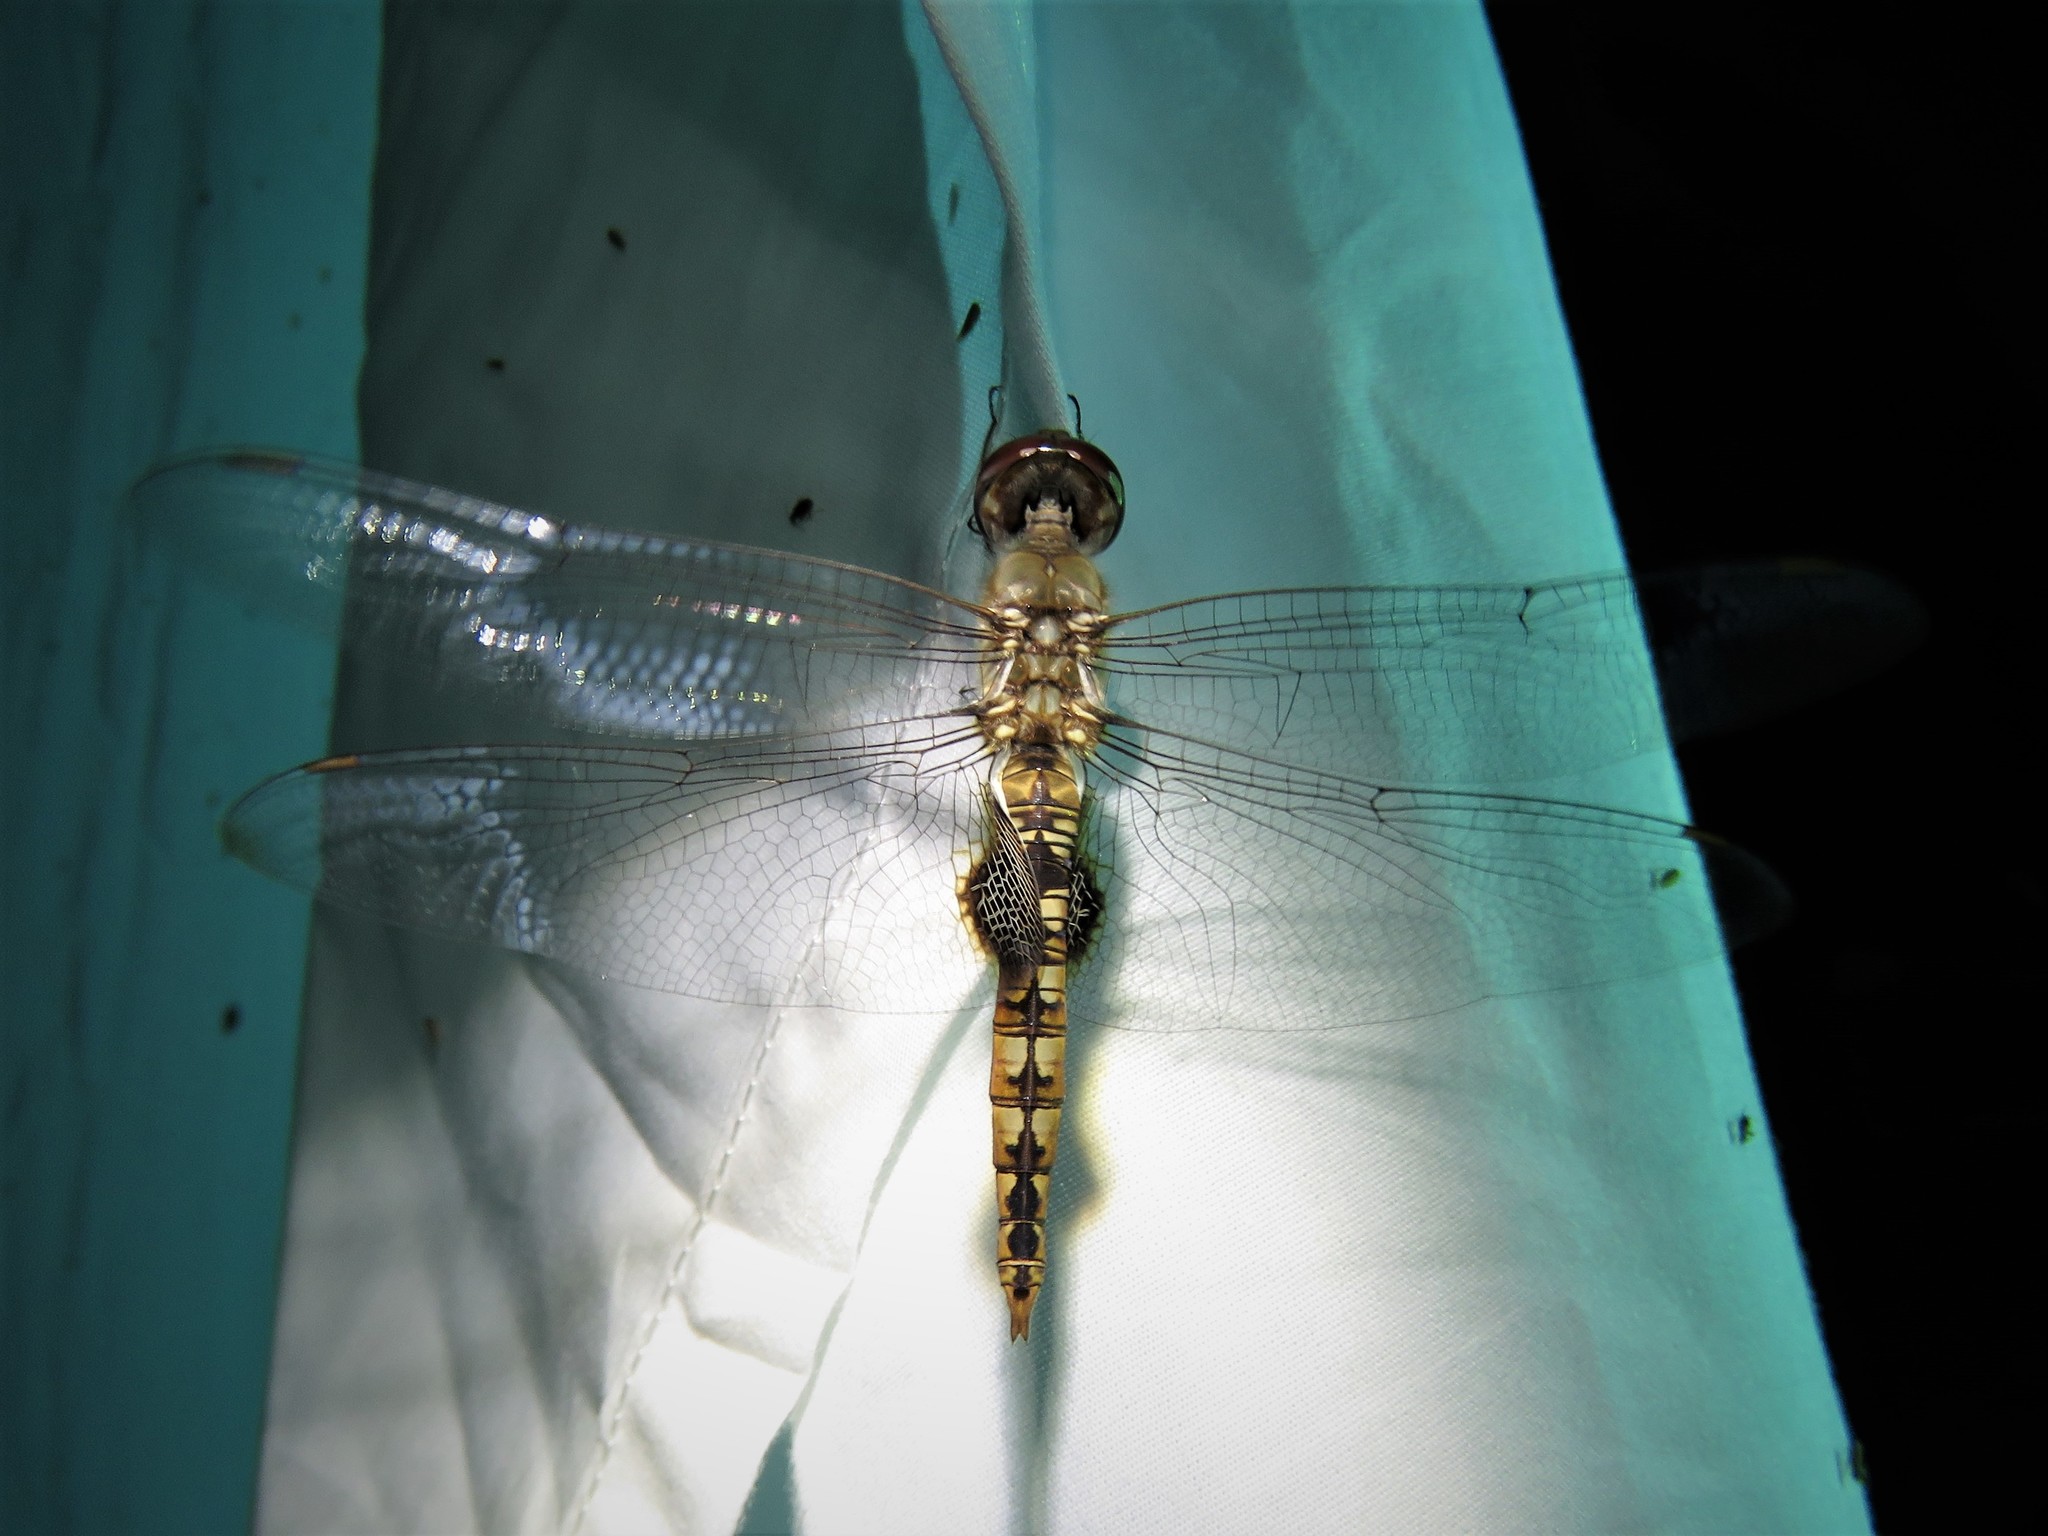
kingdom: Animalia
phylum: Arthropoda
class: Insecta
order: Odonata
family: Libellulidae
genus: Pantala
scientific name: Pantala hymenaea
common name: Spot-winged glider
